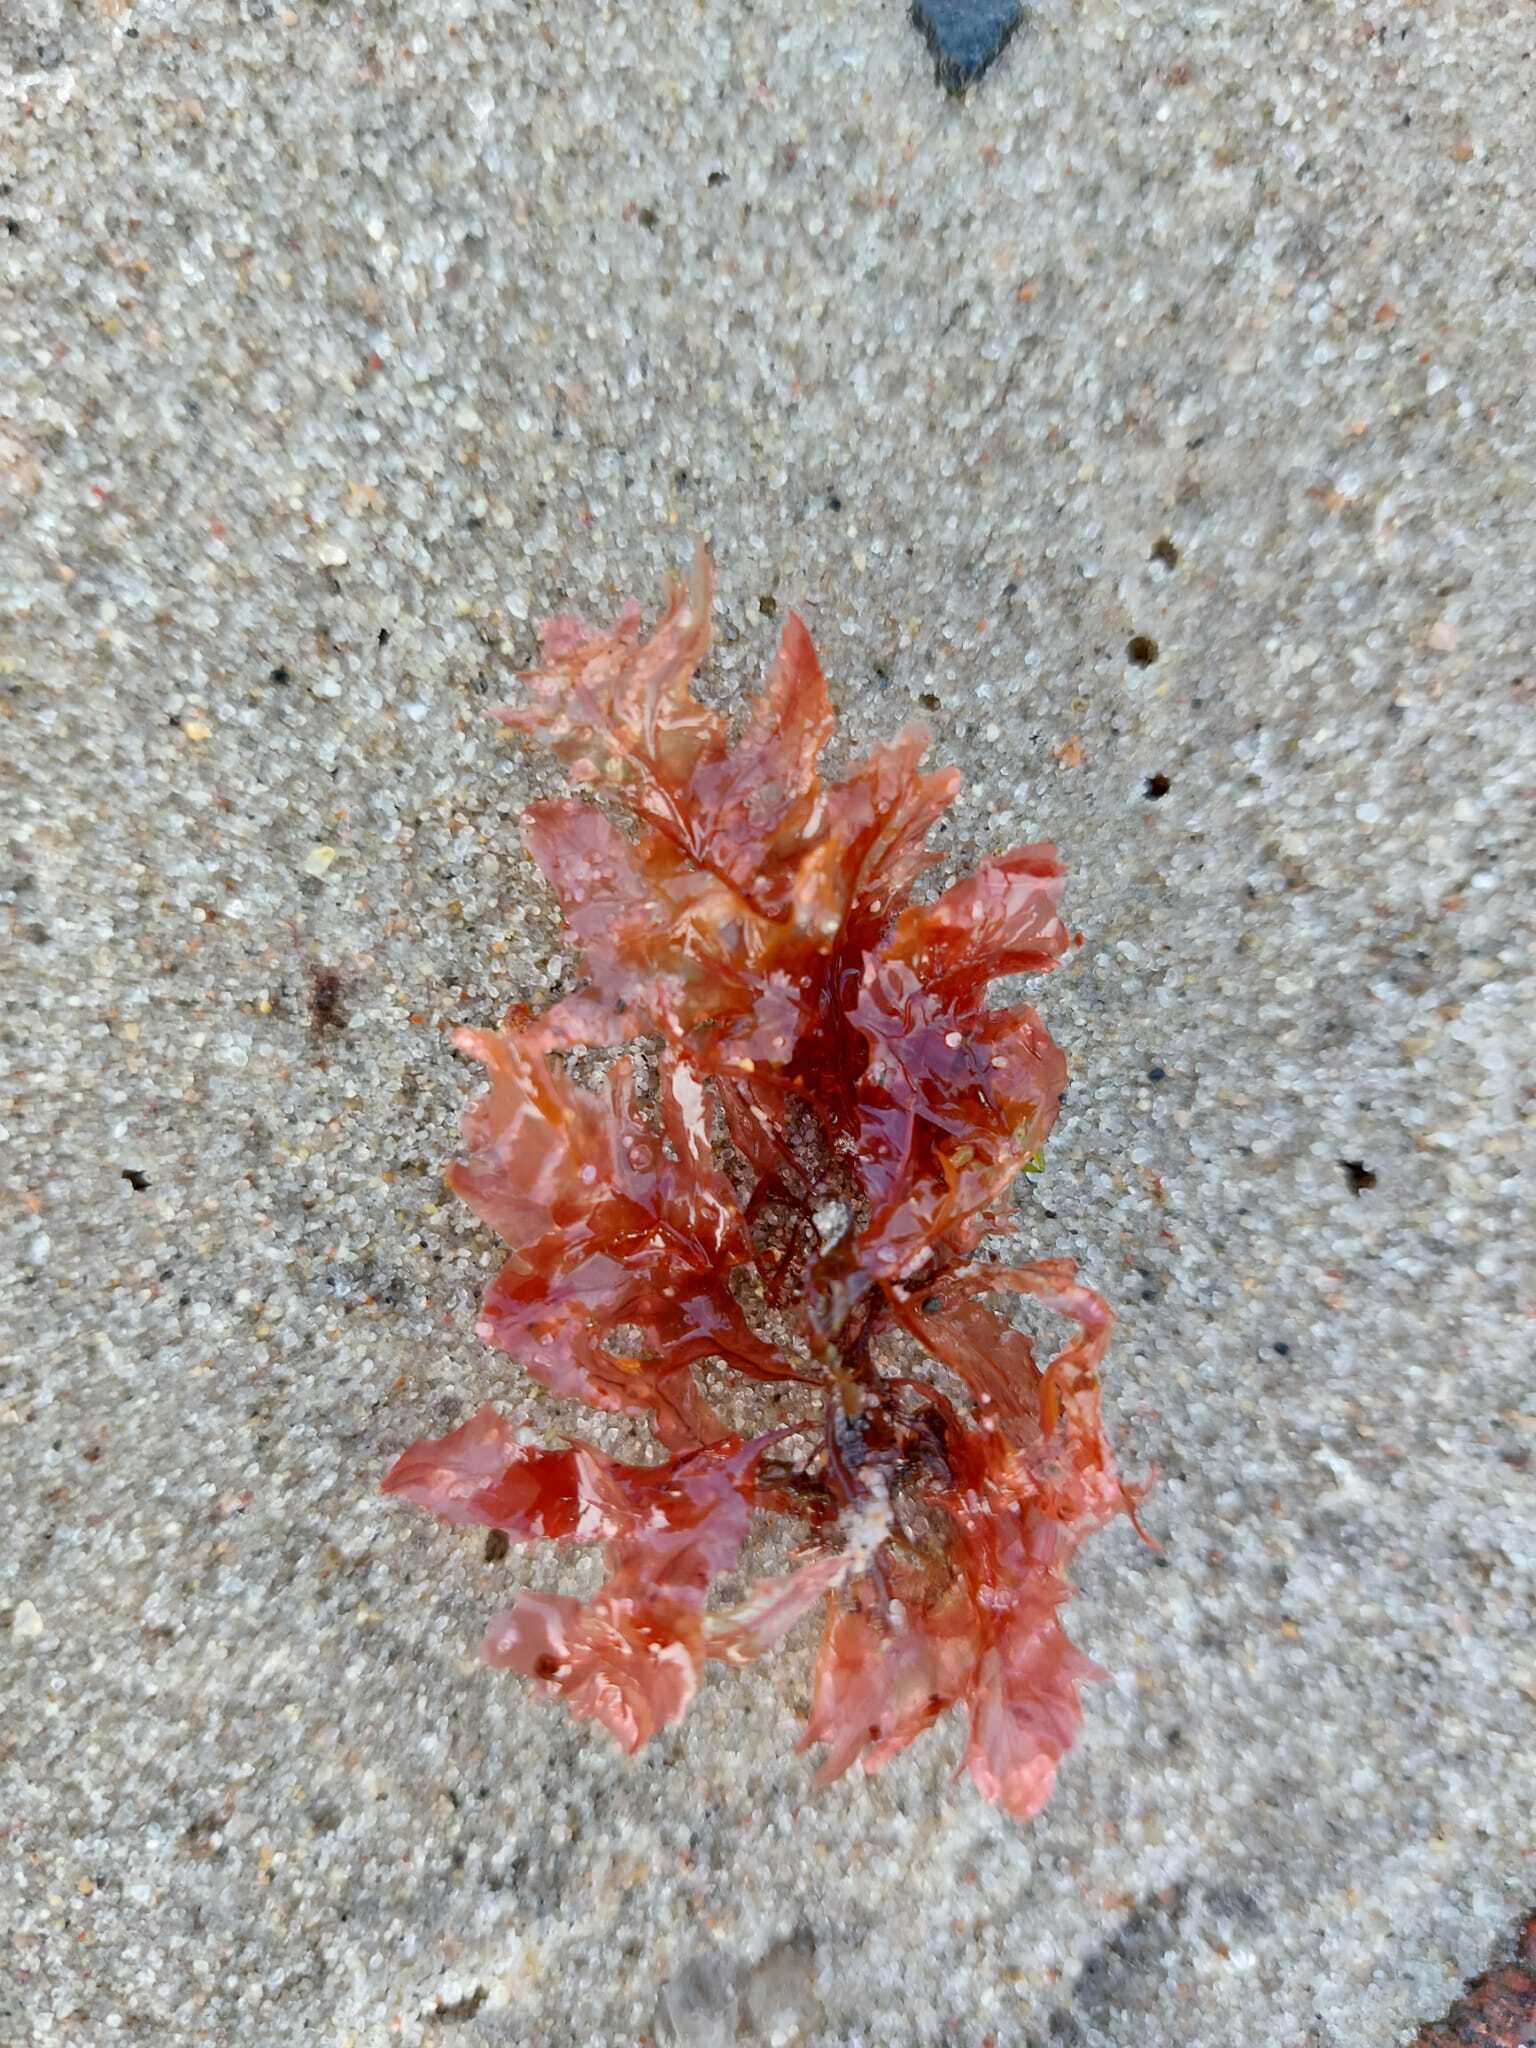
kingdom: Plantae
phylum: Rhodophyta
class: Florideophyceae
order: Ceramiales
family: Delesseriaceae
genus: Phycodrys
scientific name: Phycodrys rubens
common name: Sea oak
